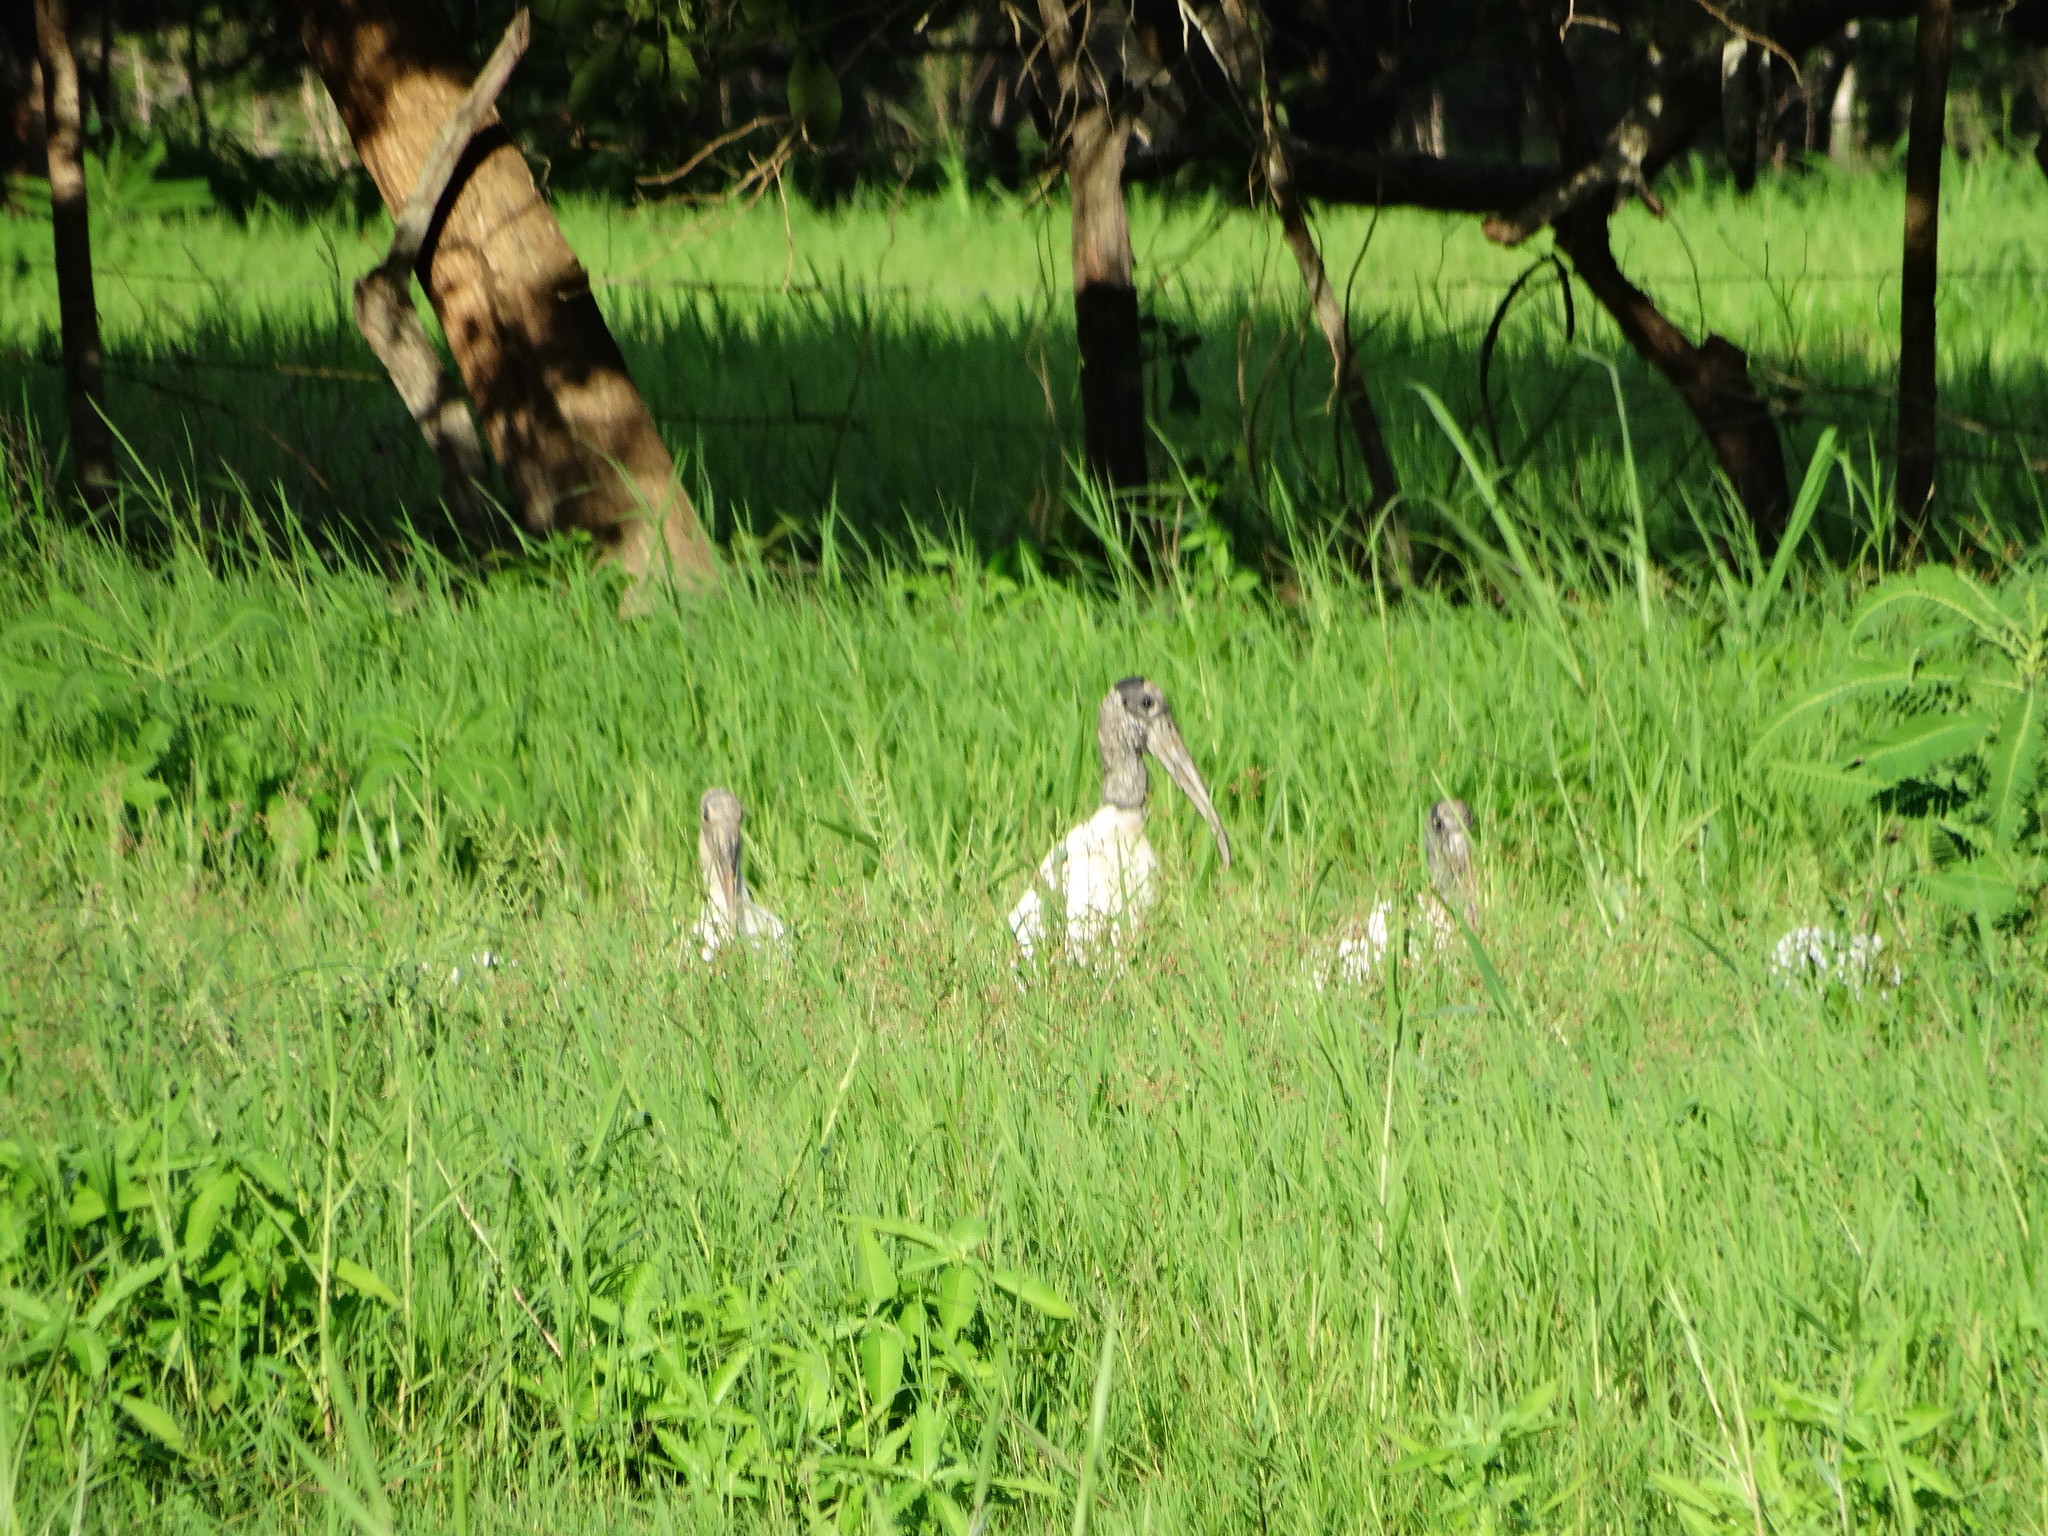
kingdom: Animalia
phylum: Chordata
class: Aves
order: Ciconiiformes
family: Ciconiidae
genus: Mycteria
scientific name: Mycteria americana
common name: Wood stork
